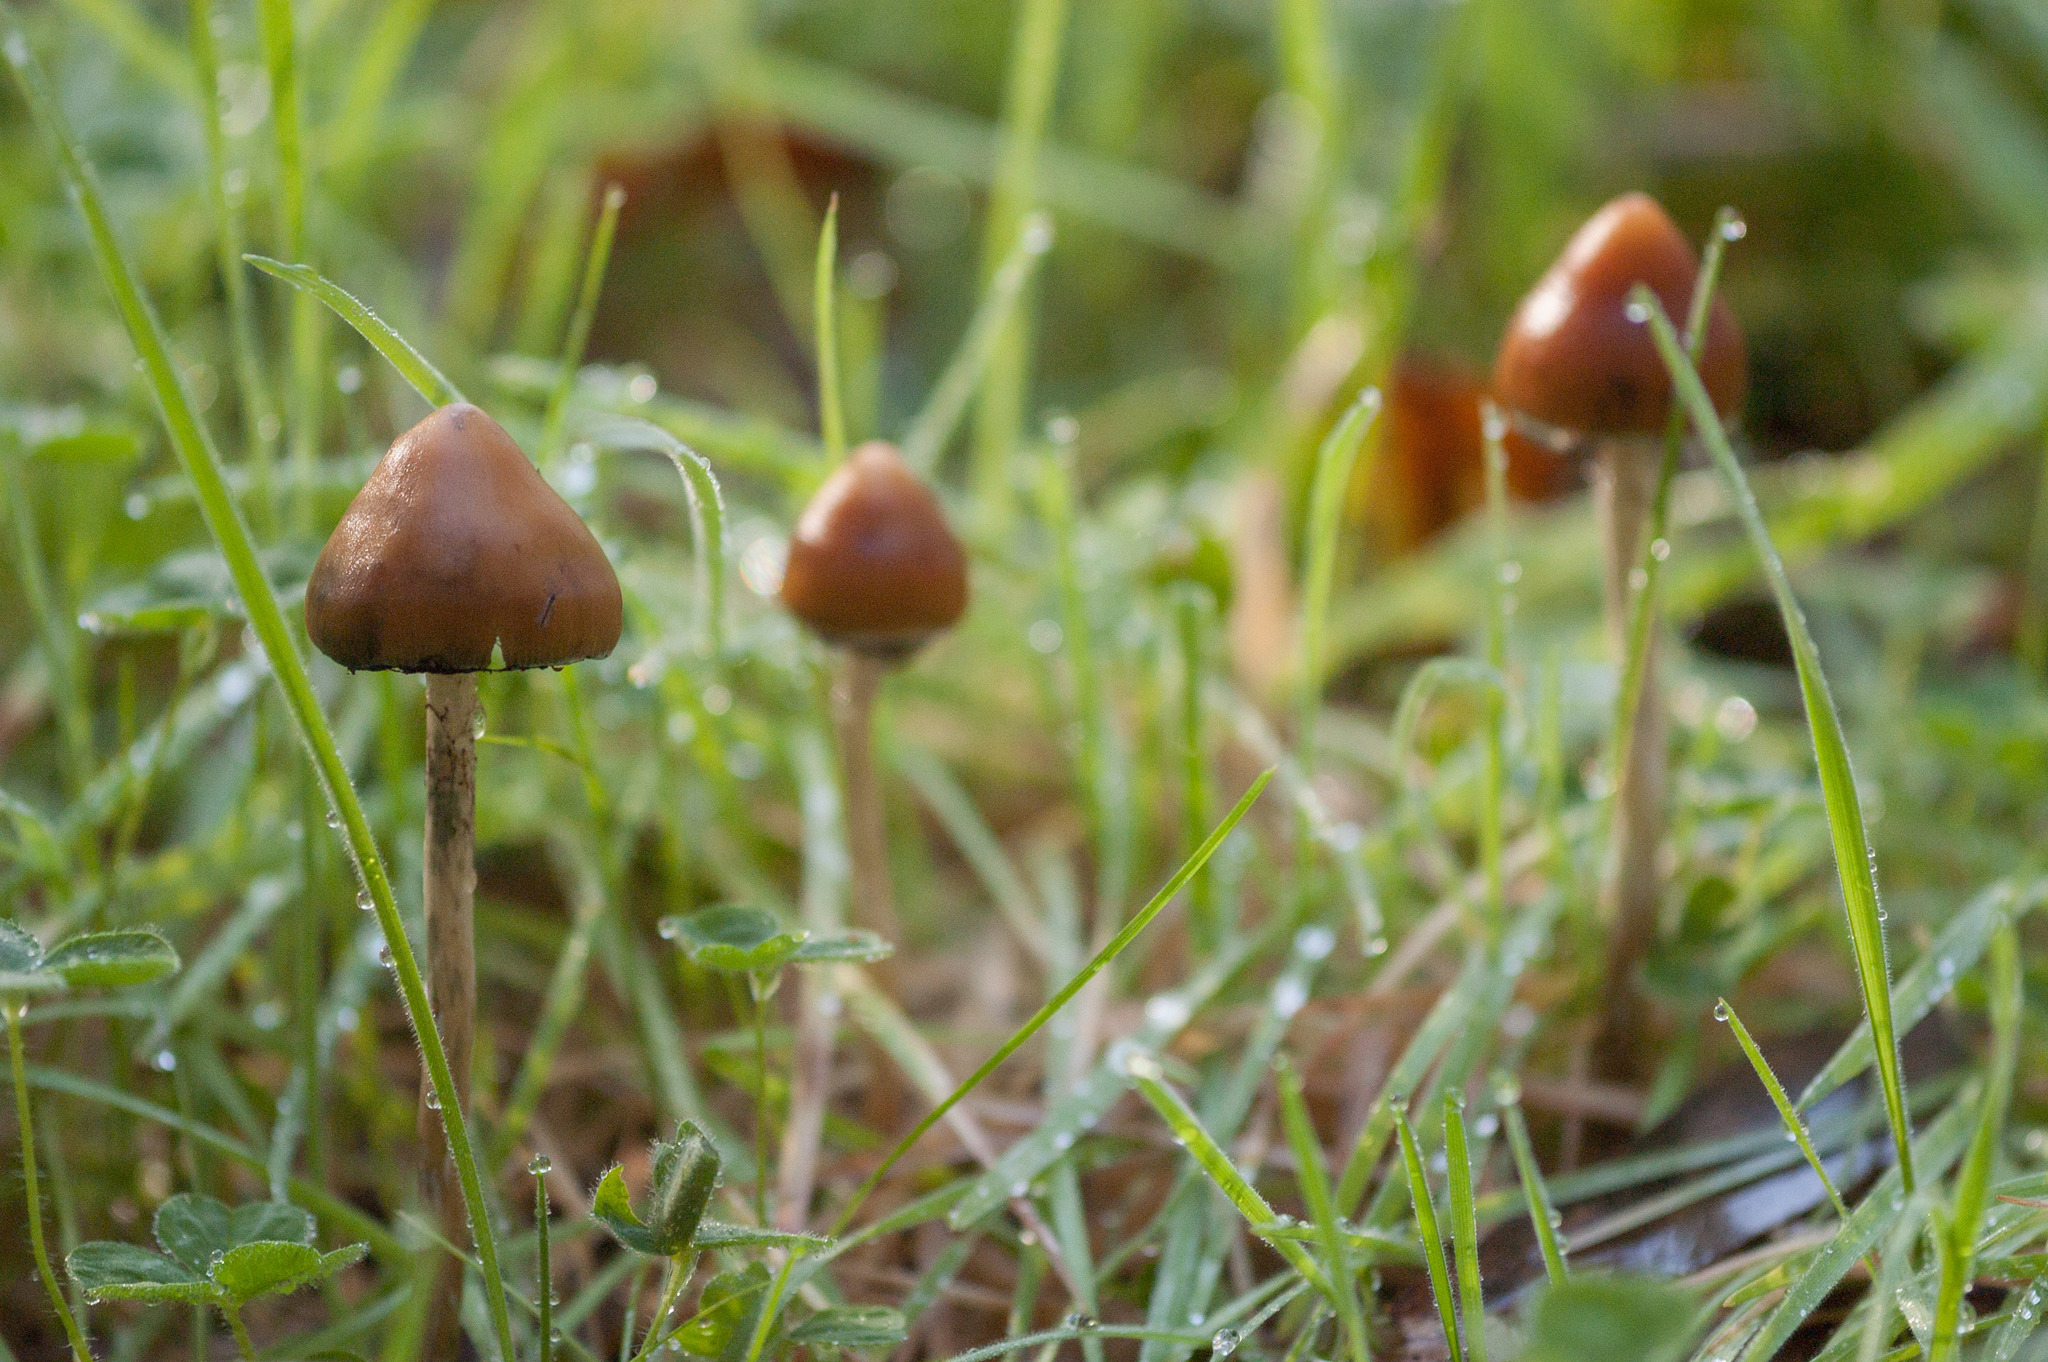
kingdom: Fungi
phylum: Basidiomycota
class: Agaricomycetes
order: Agaricales
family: Hymenogastraceae
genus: Psilocybe
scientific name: Psilocybe subaeruginosa
